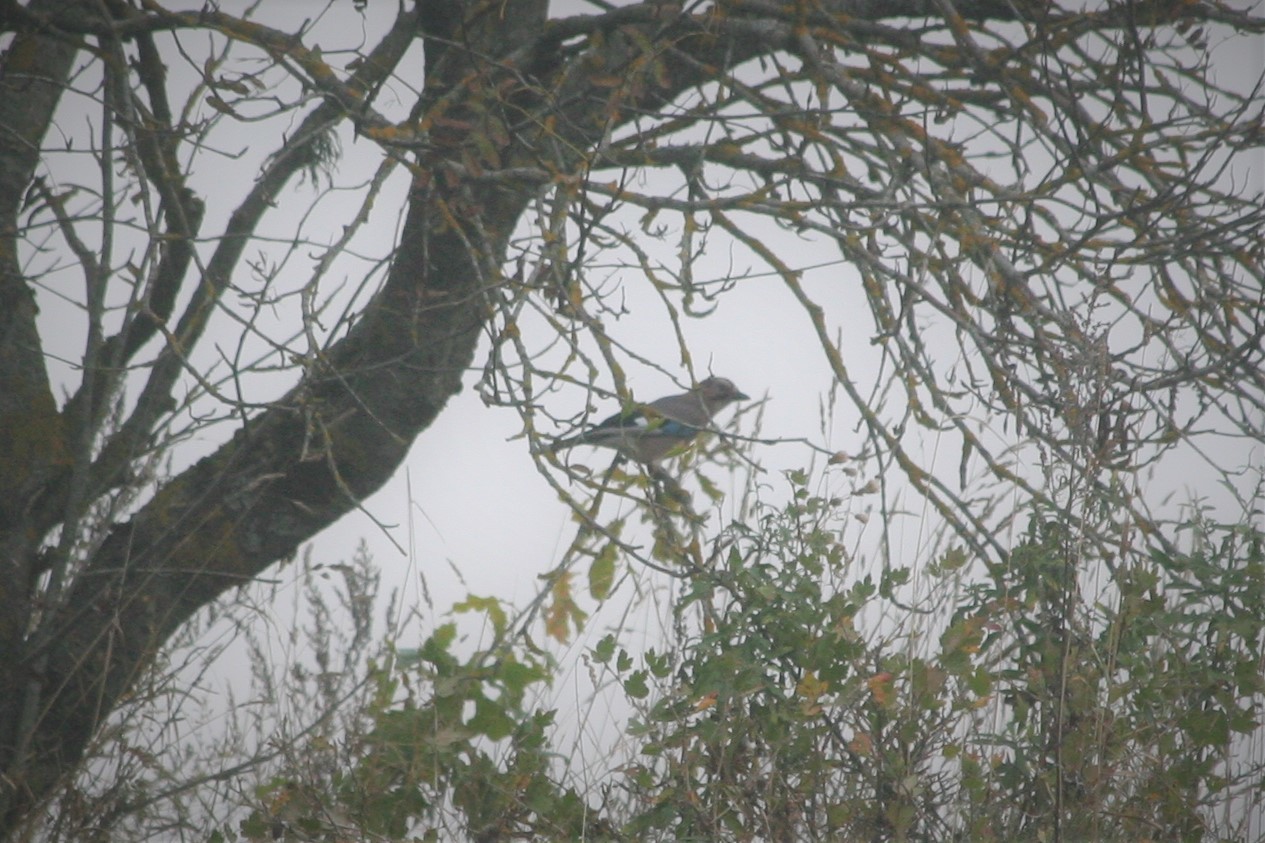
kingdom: Animalia
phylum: Chordata
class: Aves
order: Passeriformes
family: Corvidae
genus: Garrulus
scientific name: Garrulus glandarius
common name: Eurasian jay
